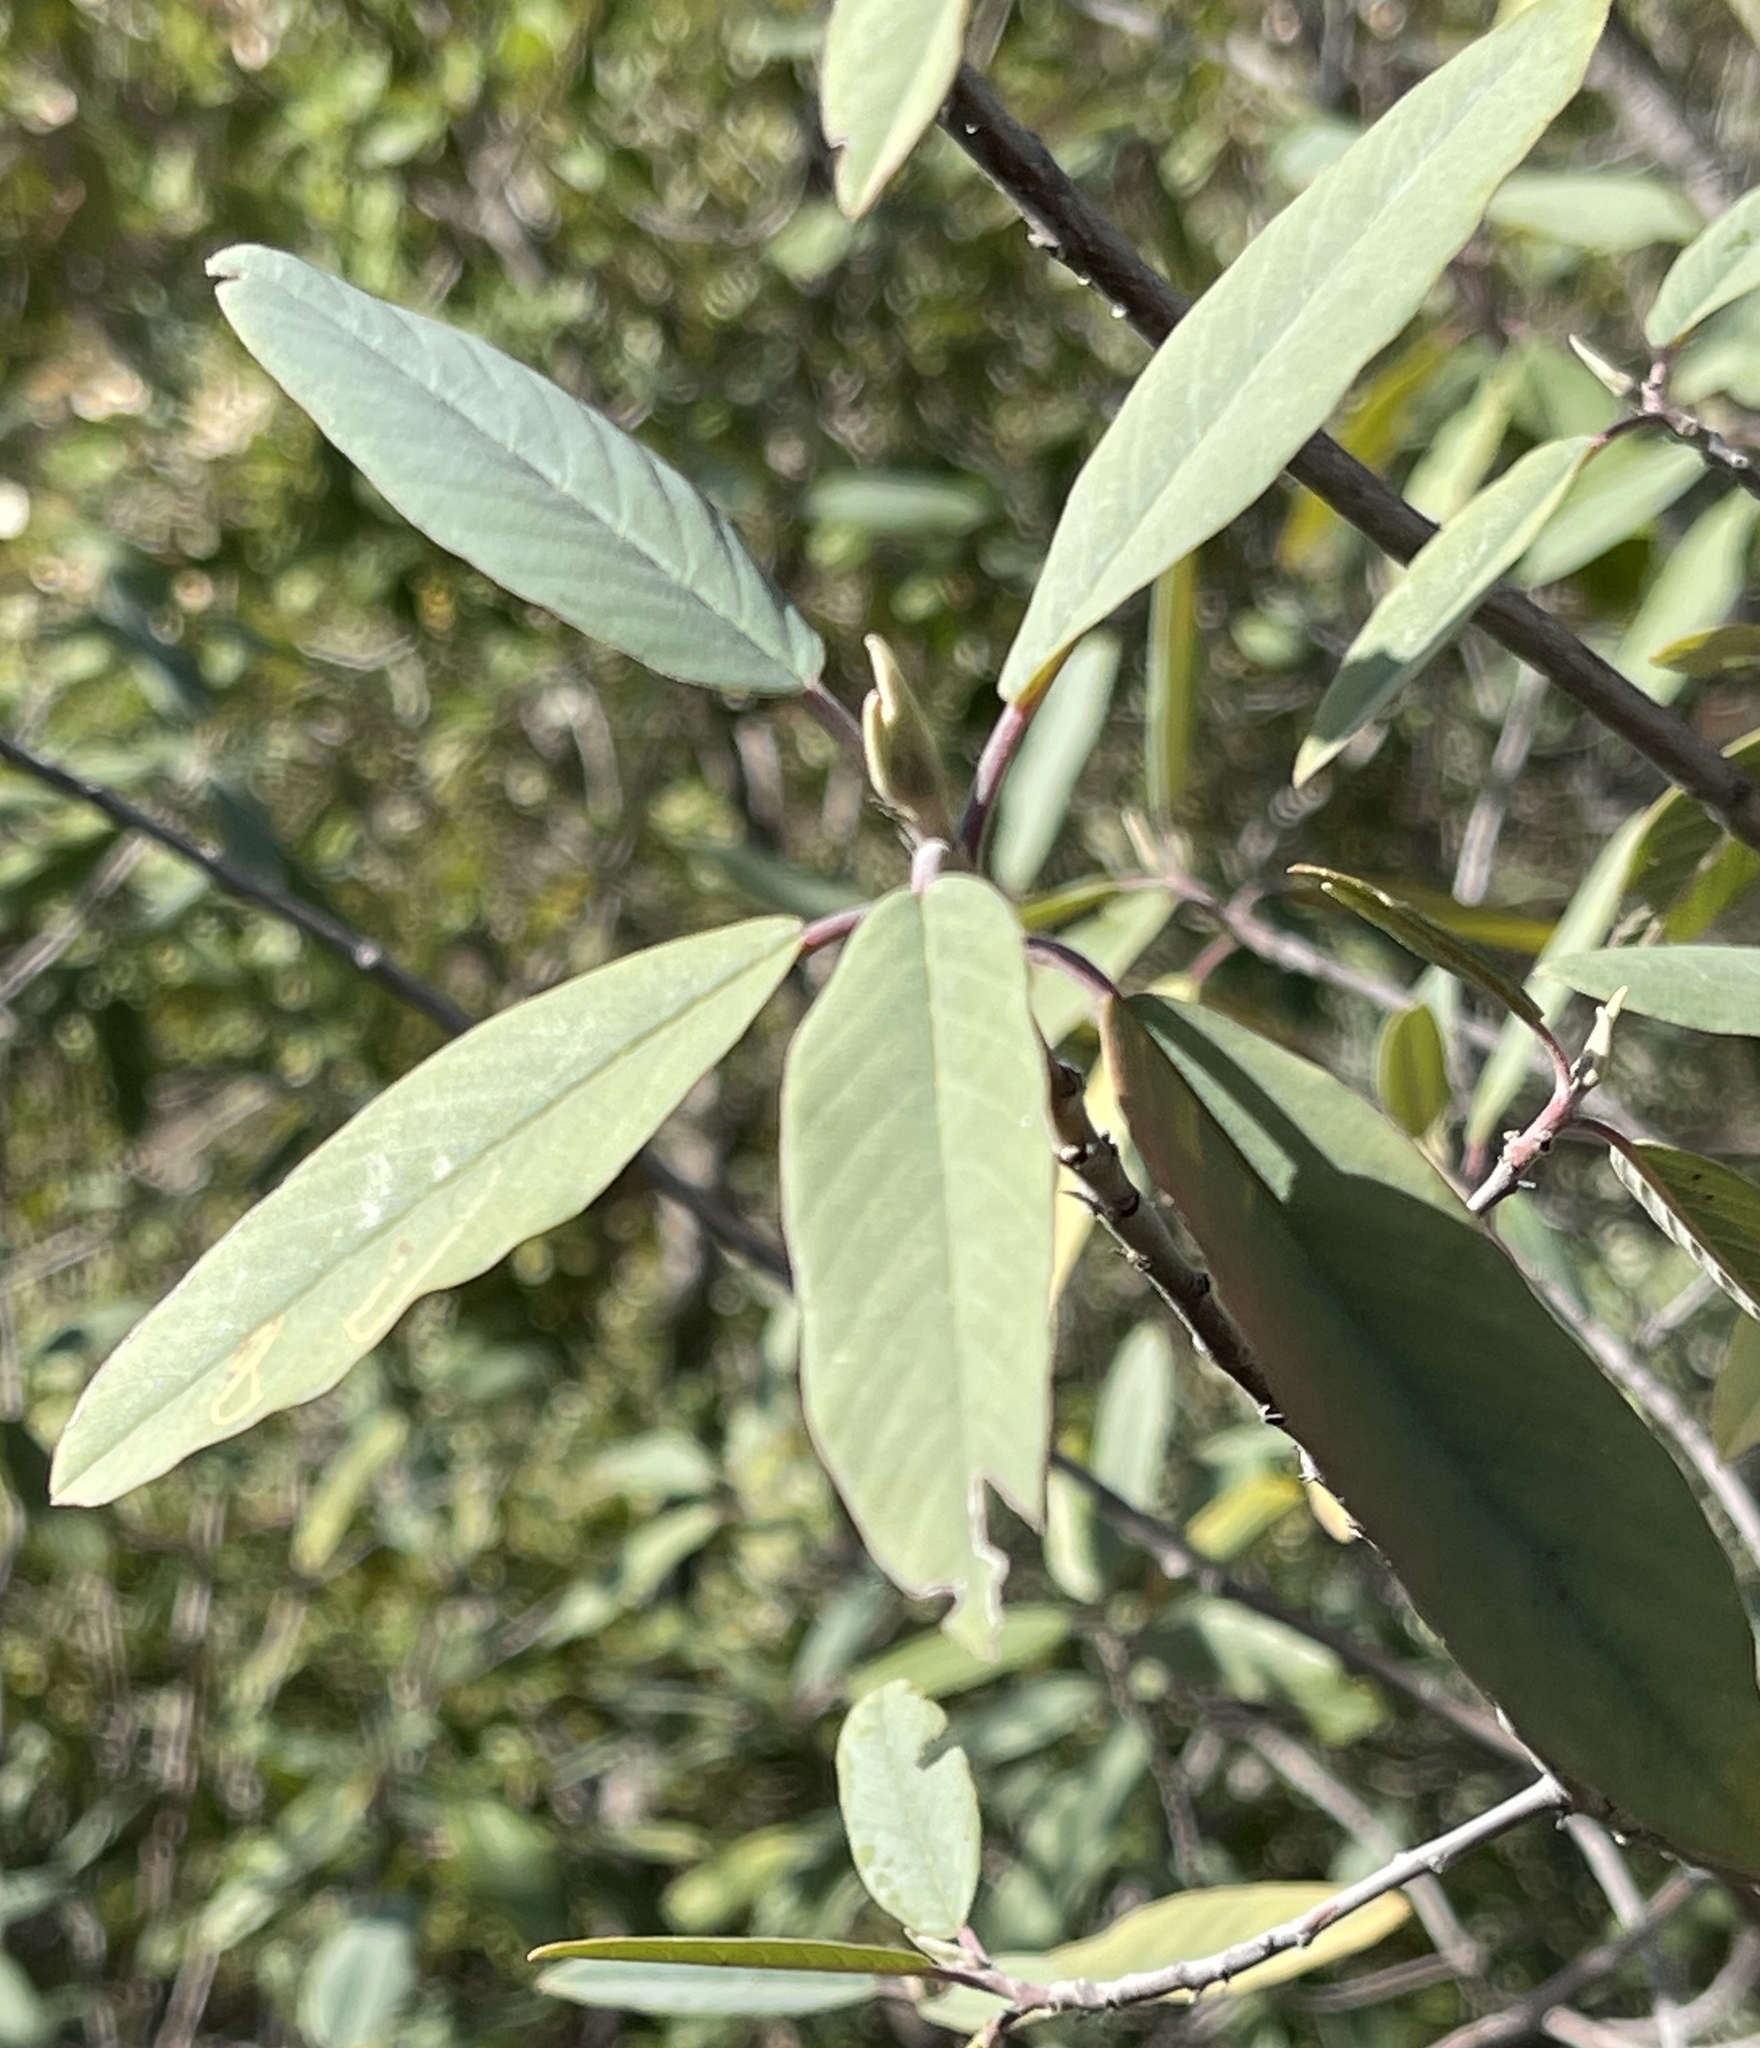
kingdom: Plantae
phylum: Tracheophyta
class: Magnoliopsida
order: Rosales
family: Rhamnaceae
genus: Frangula
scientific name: Frangula californica
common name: California buckthorn
